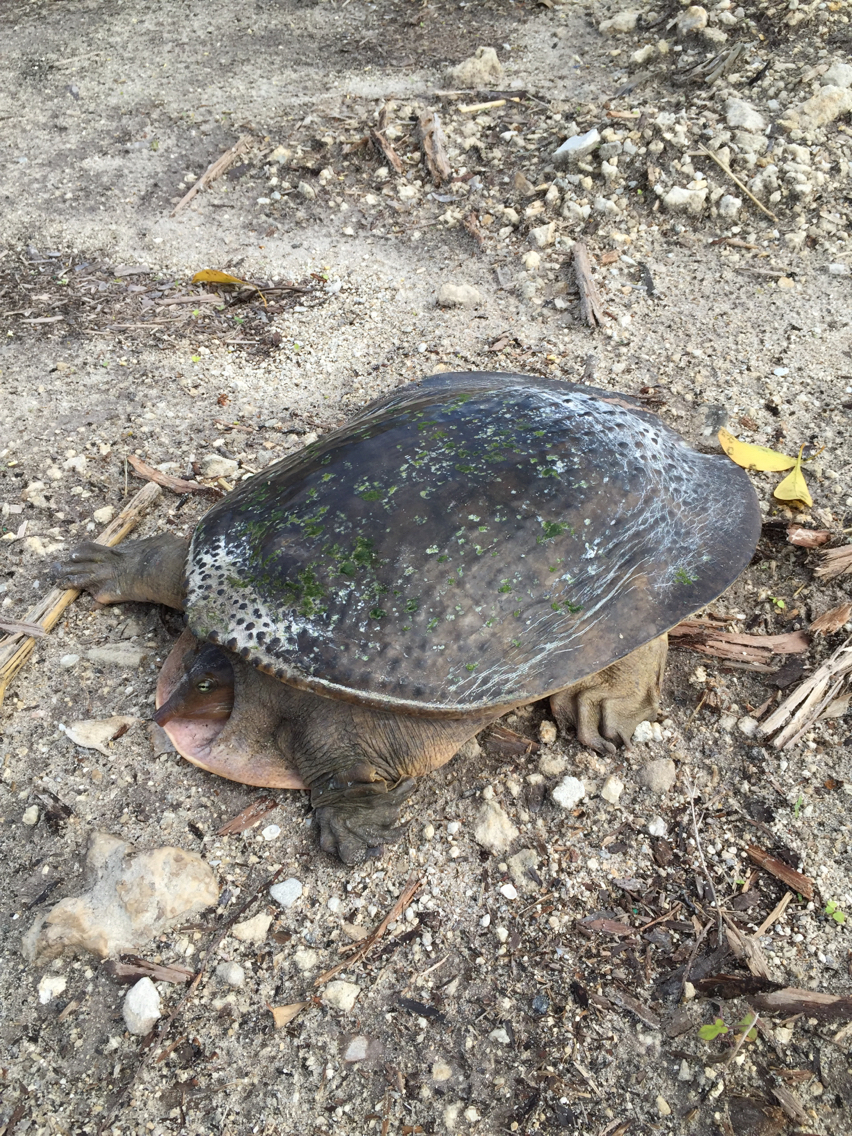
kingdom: Animalia
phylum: Chordata
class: Testudines
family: Trionychidae
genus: Apalone
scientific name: Apalone ferox
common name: Florida softshell turtle
